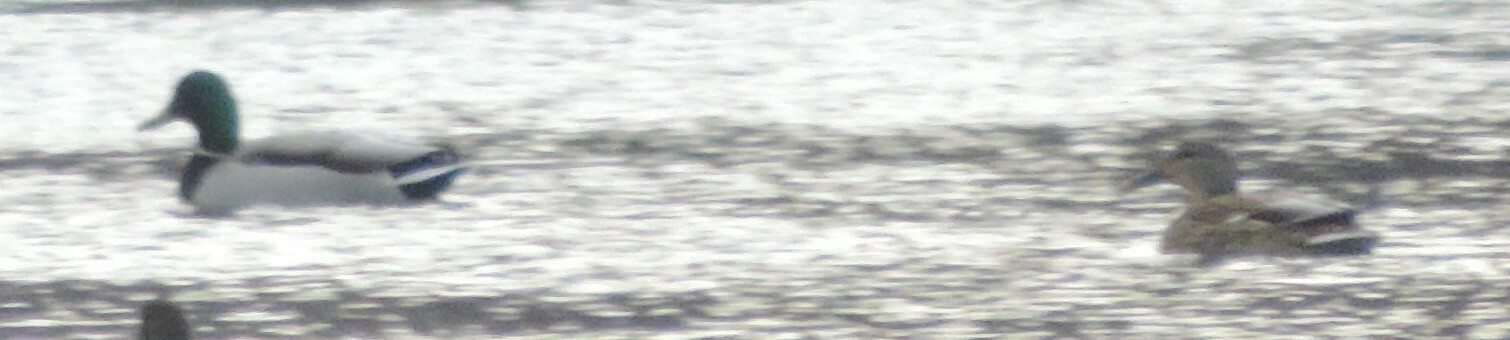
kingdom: Animalia
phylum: Chordata
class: Aves
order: Anseriformes
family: Anatidae
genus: Anas
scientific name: Anas platyrhynchos
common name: Mallard
